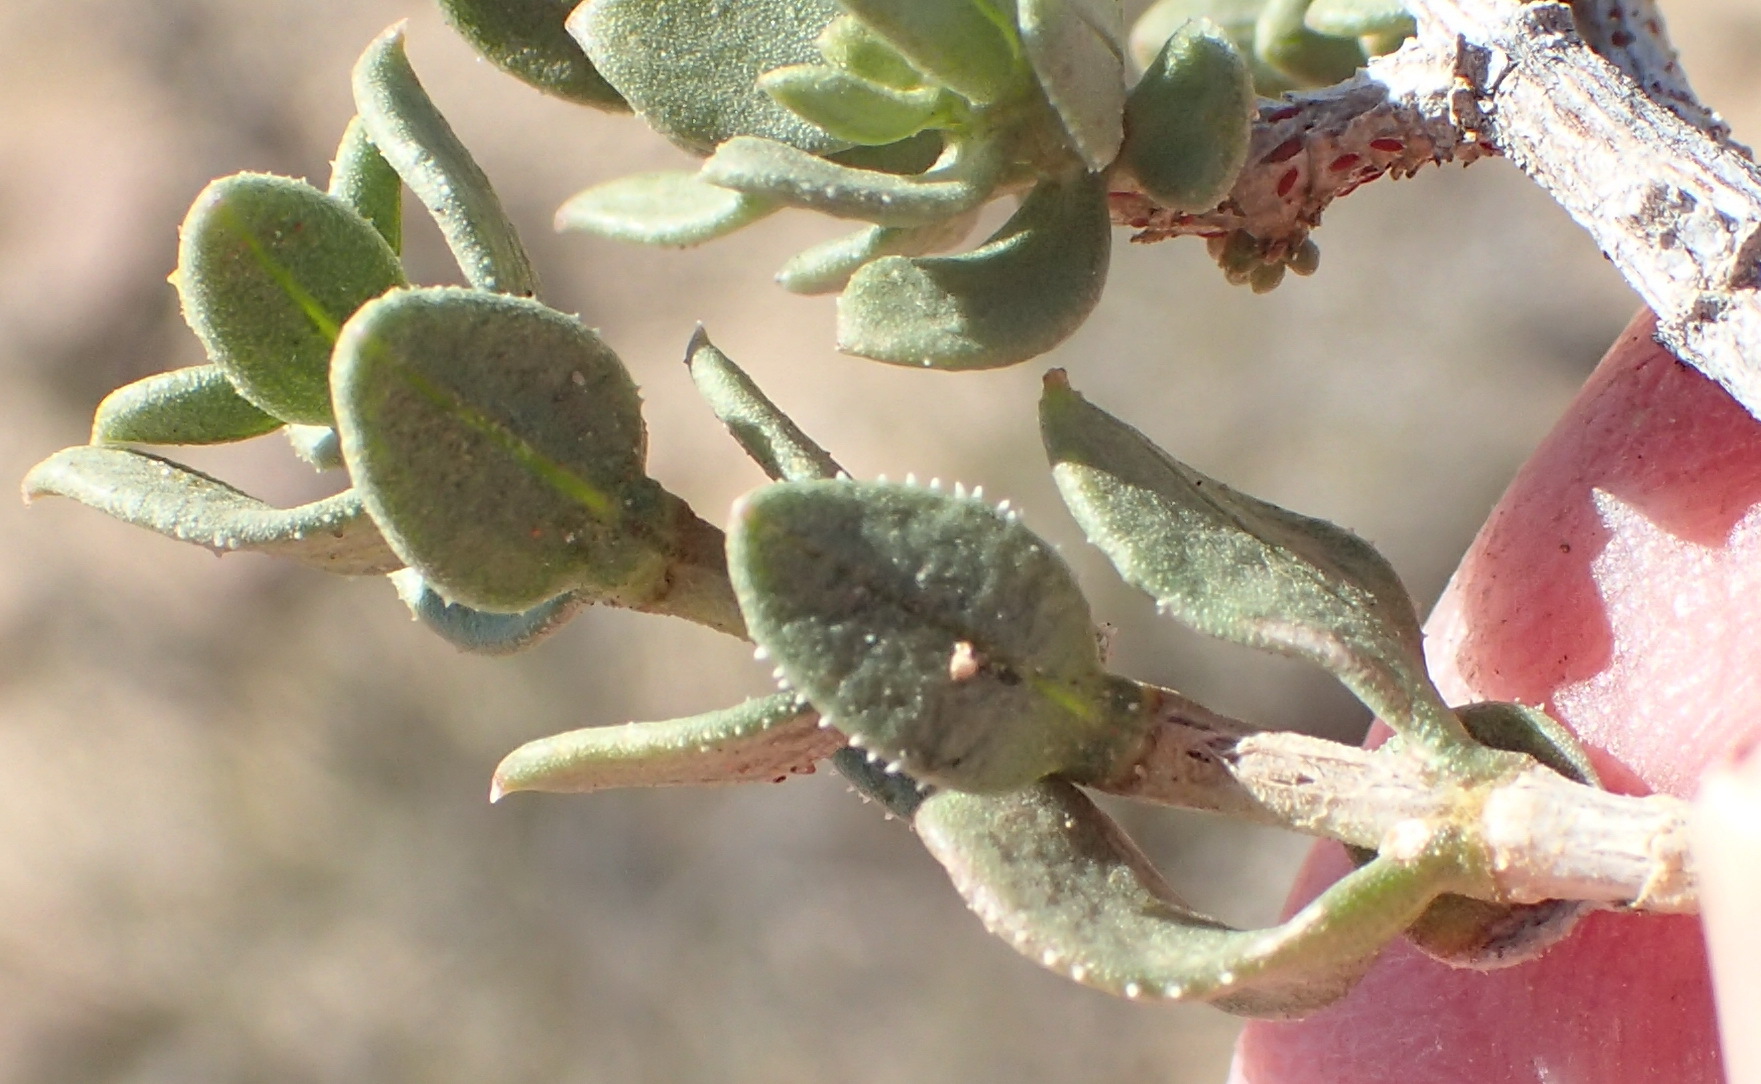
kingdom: Plantae
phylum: Tracheophyta
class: Magnoliopsida
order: Asterales
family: Asteraceae
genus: Pteronia
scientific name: Pteronia adenocarpa
